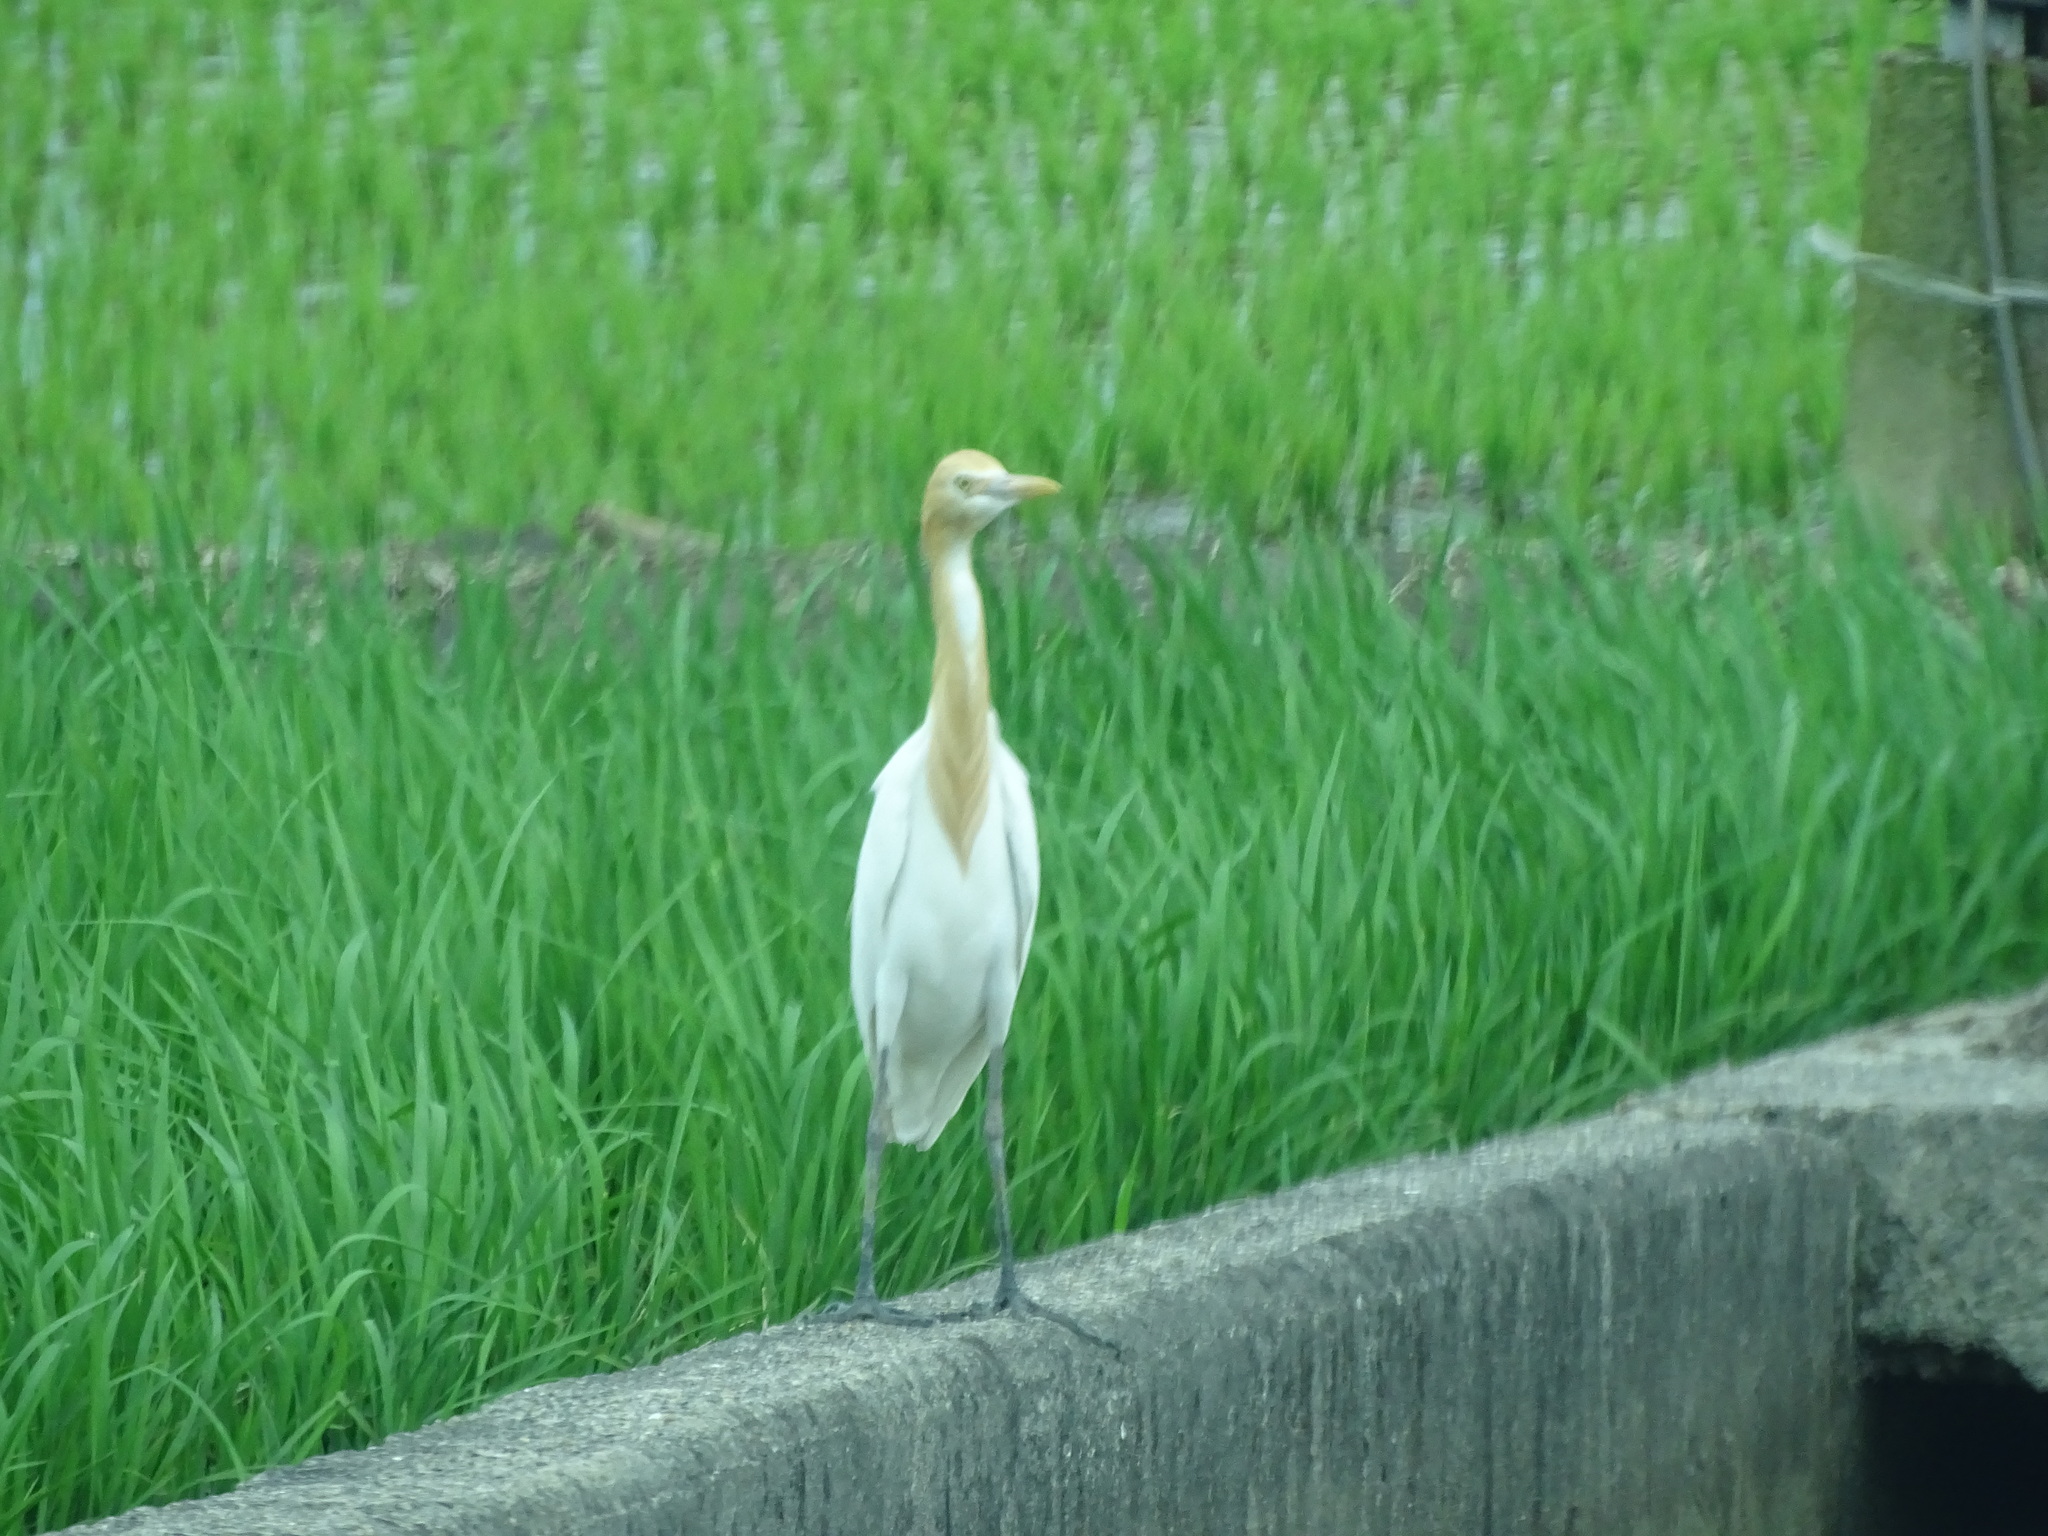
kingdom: Animalia
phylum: Chordata
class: Aves
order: Pelecaniformes
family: Ardeidae
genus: Bubulcus
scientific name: Bubulcus coromandus
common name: Eastern cattle egret
